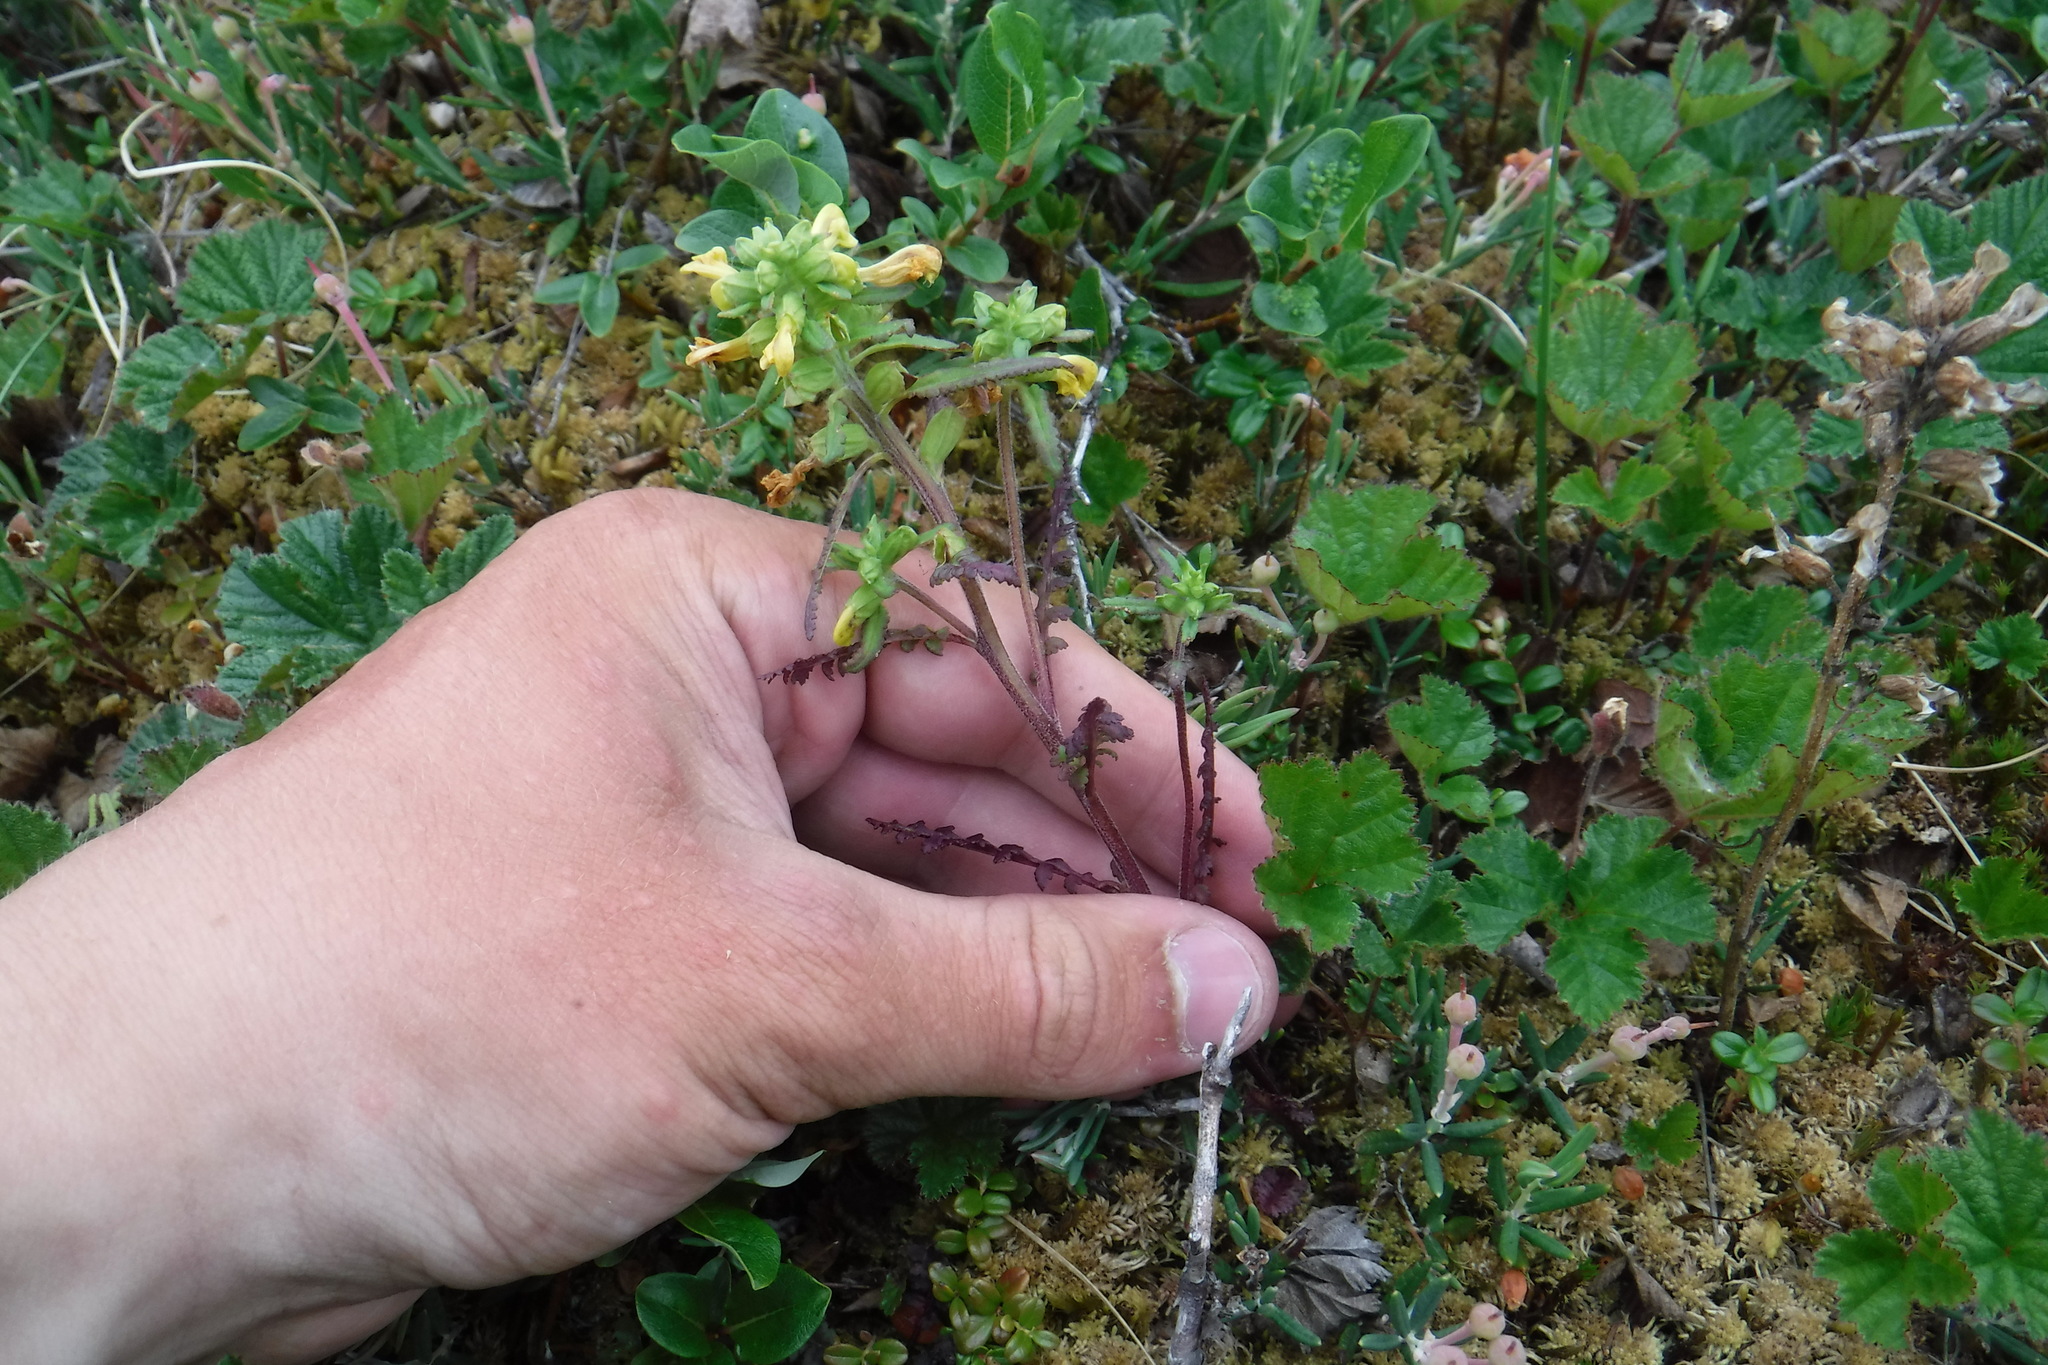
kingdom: Plantae
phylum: Tracheophyta
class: Magnoliopsida
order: Lamiales
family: Orobanchaceae
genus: Pedicularis
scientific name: Pedicularis labradorica
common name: Labrador lousewort
